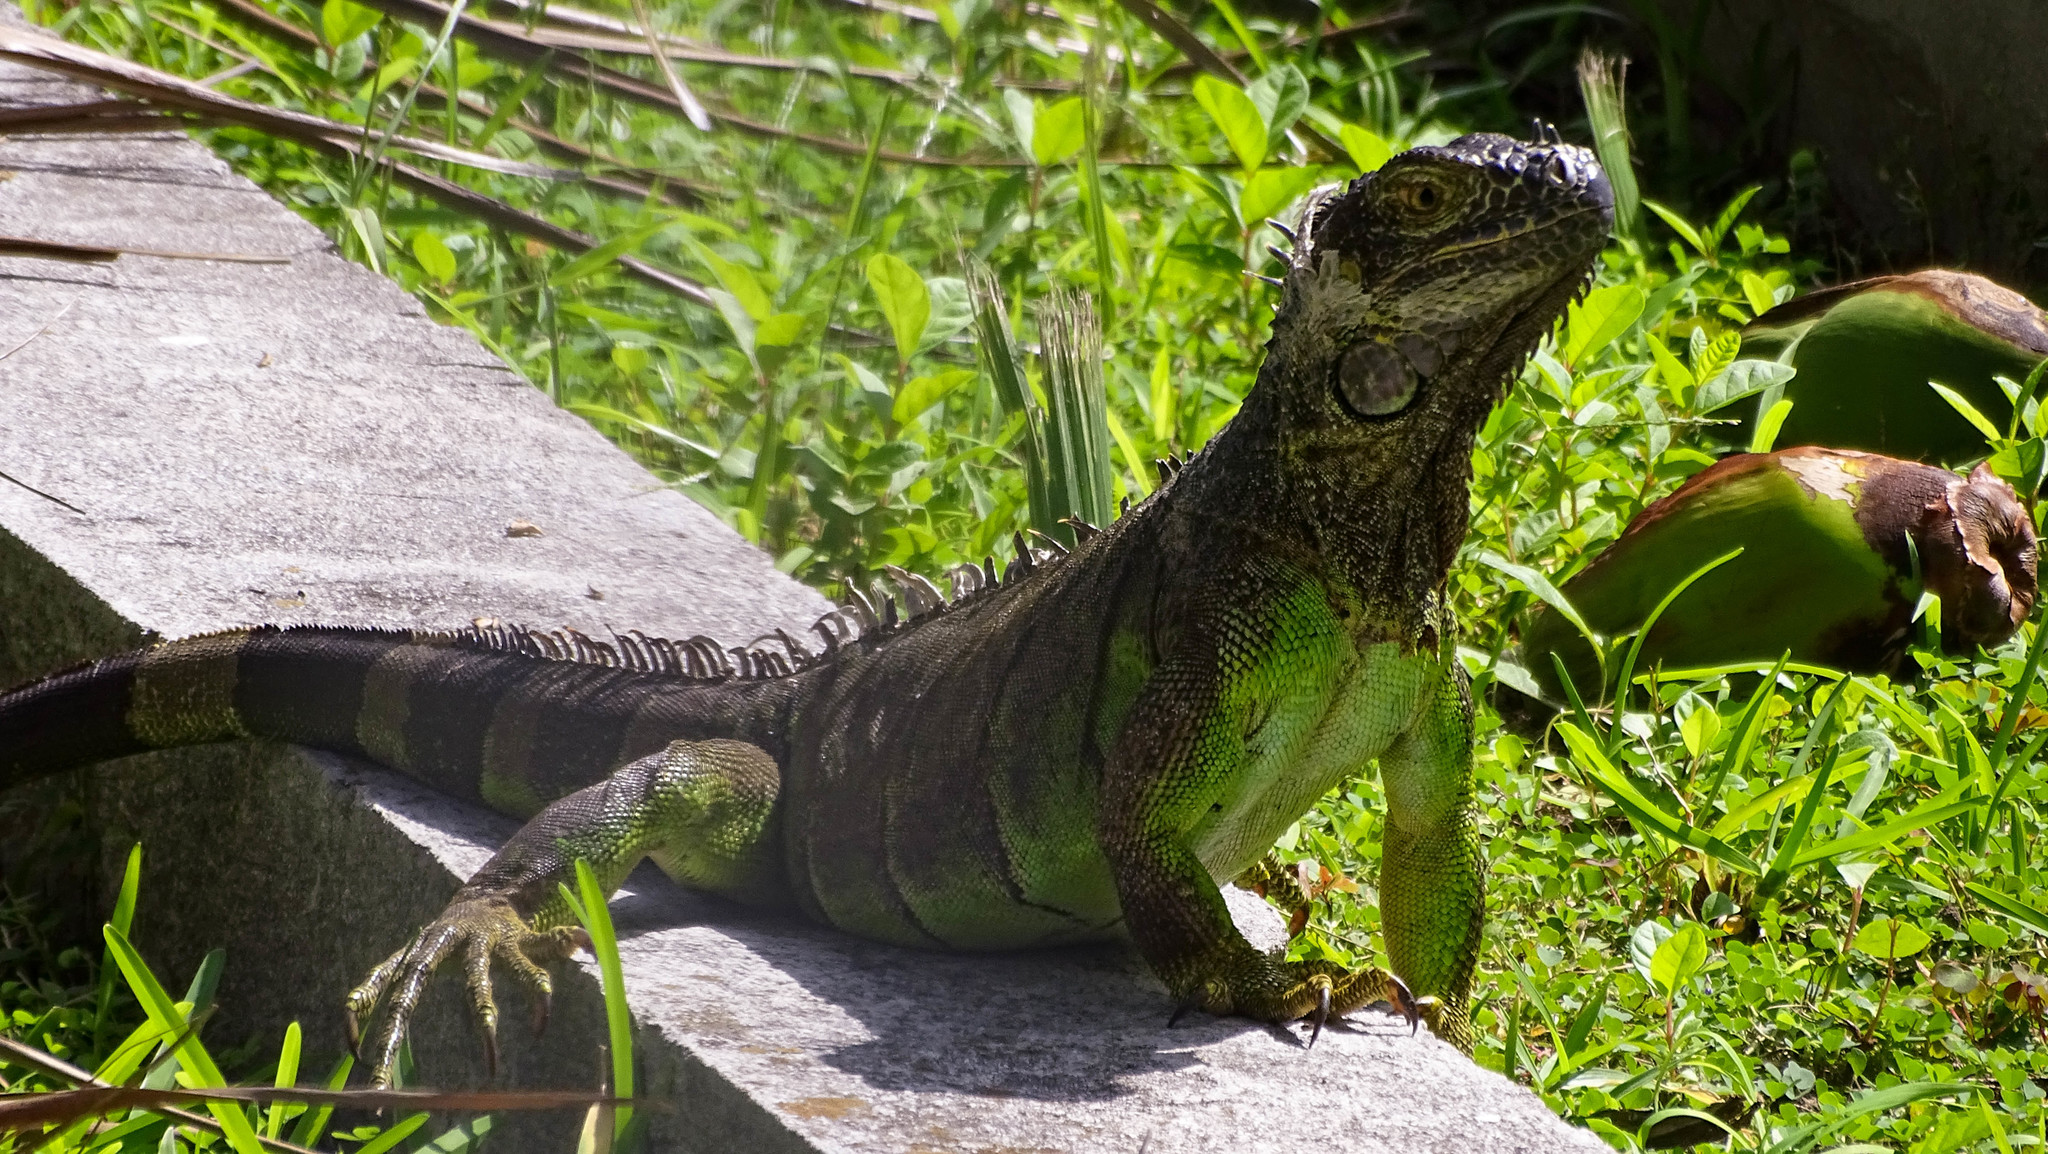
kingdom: Animalia
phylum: Chordata
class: Squamata
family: Iguanidae
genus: Iguana
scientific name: Iguana iguana
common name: Green iguana
